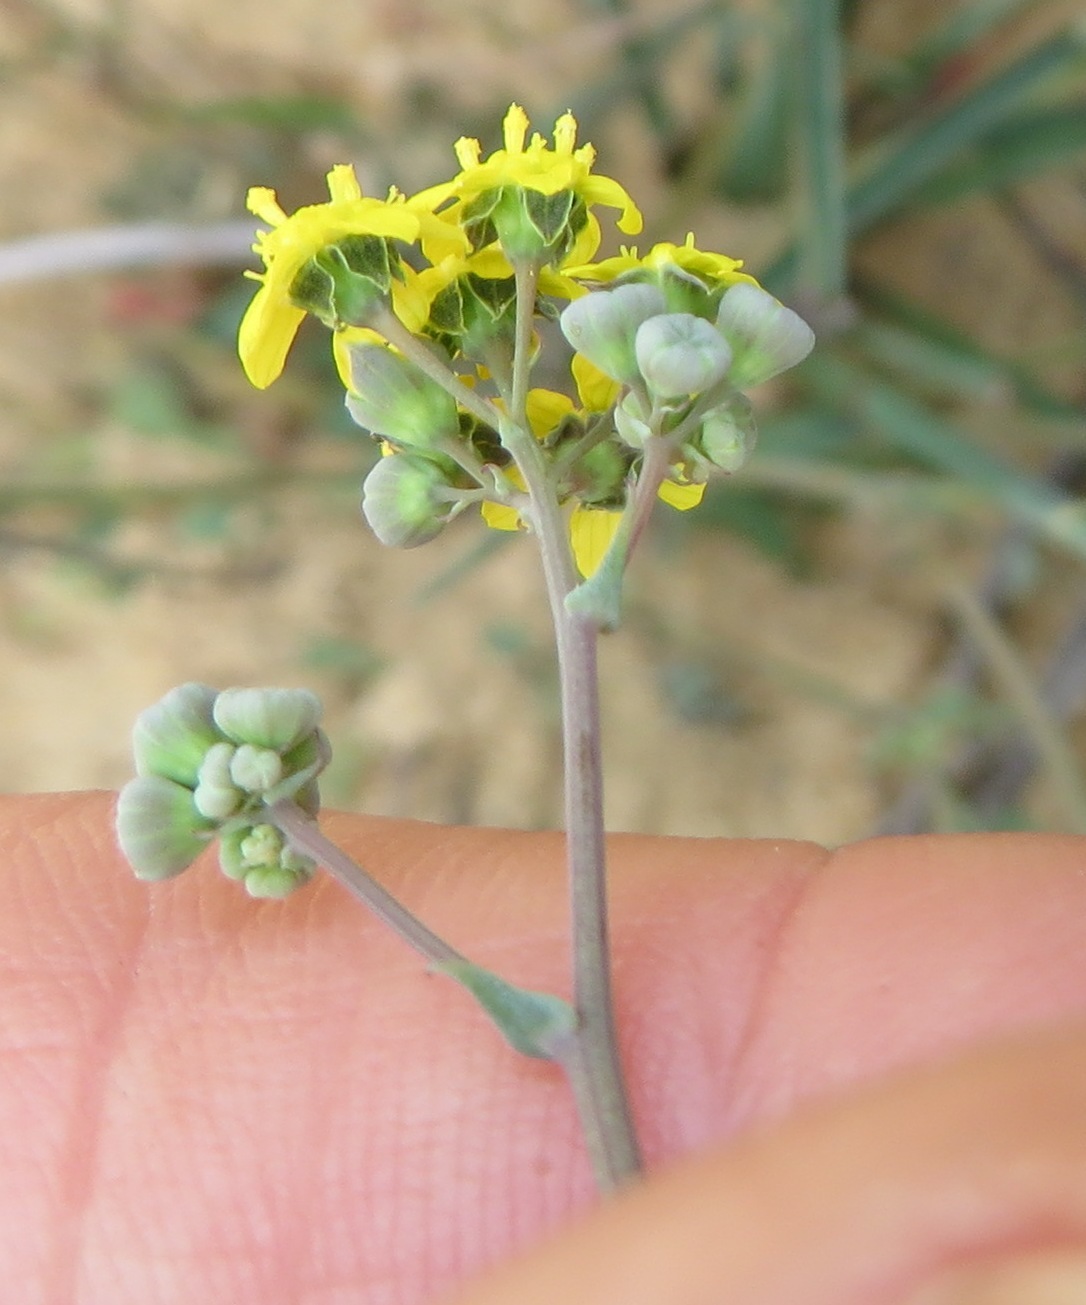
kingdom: Plantae
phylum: Tracheophyta
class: Magnoliopsida
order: Asterales
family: Asteraceae
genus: Gymnodiscus
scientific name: Gymnodiscus capillaris
